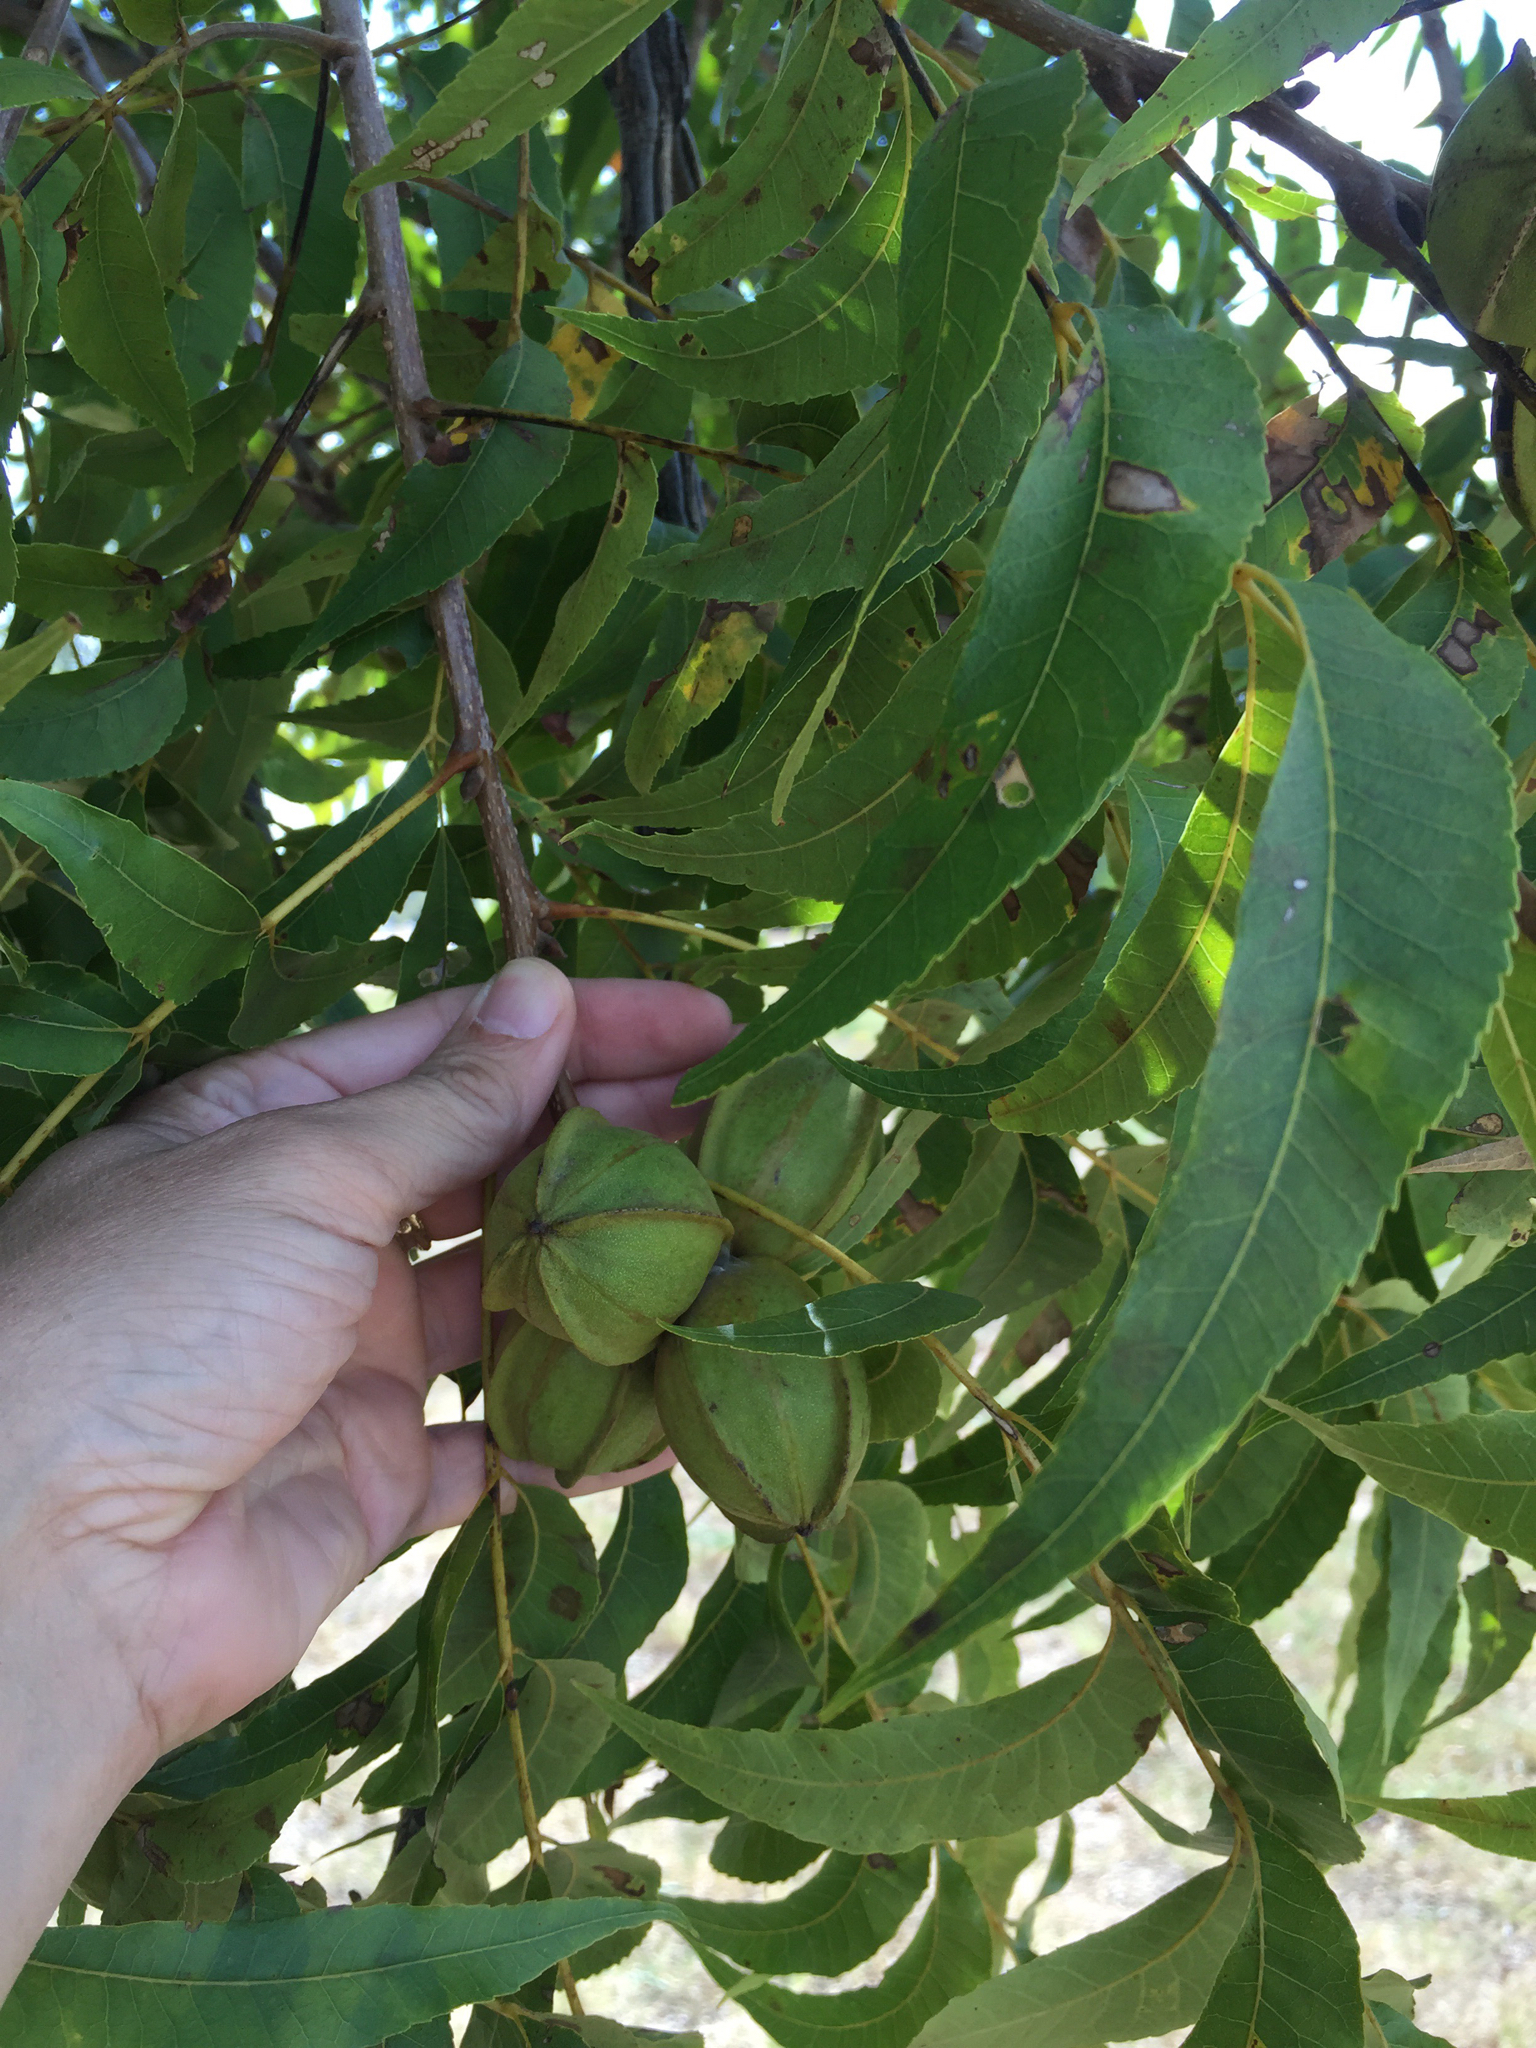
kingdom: Plantae
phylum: Tracheophyta
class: Magnoliopsida
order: Fagales
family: Juglandaceae
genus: Carya
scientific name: Carya illinoinensis
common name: Pecan
